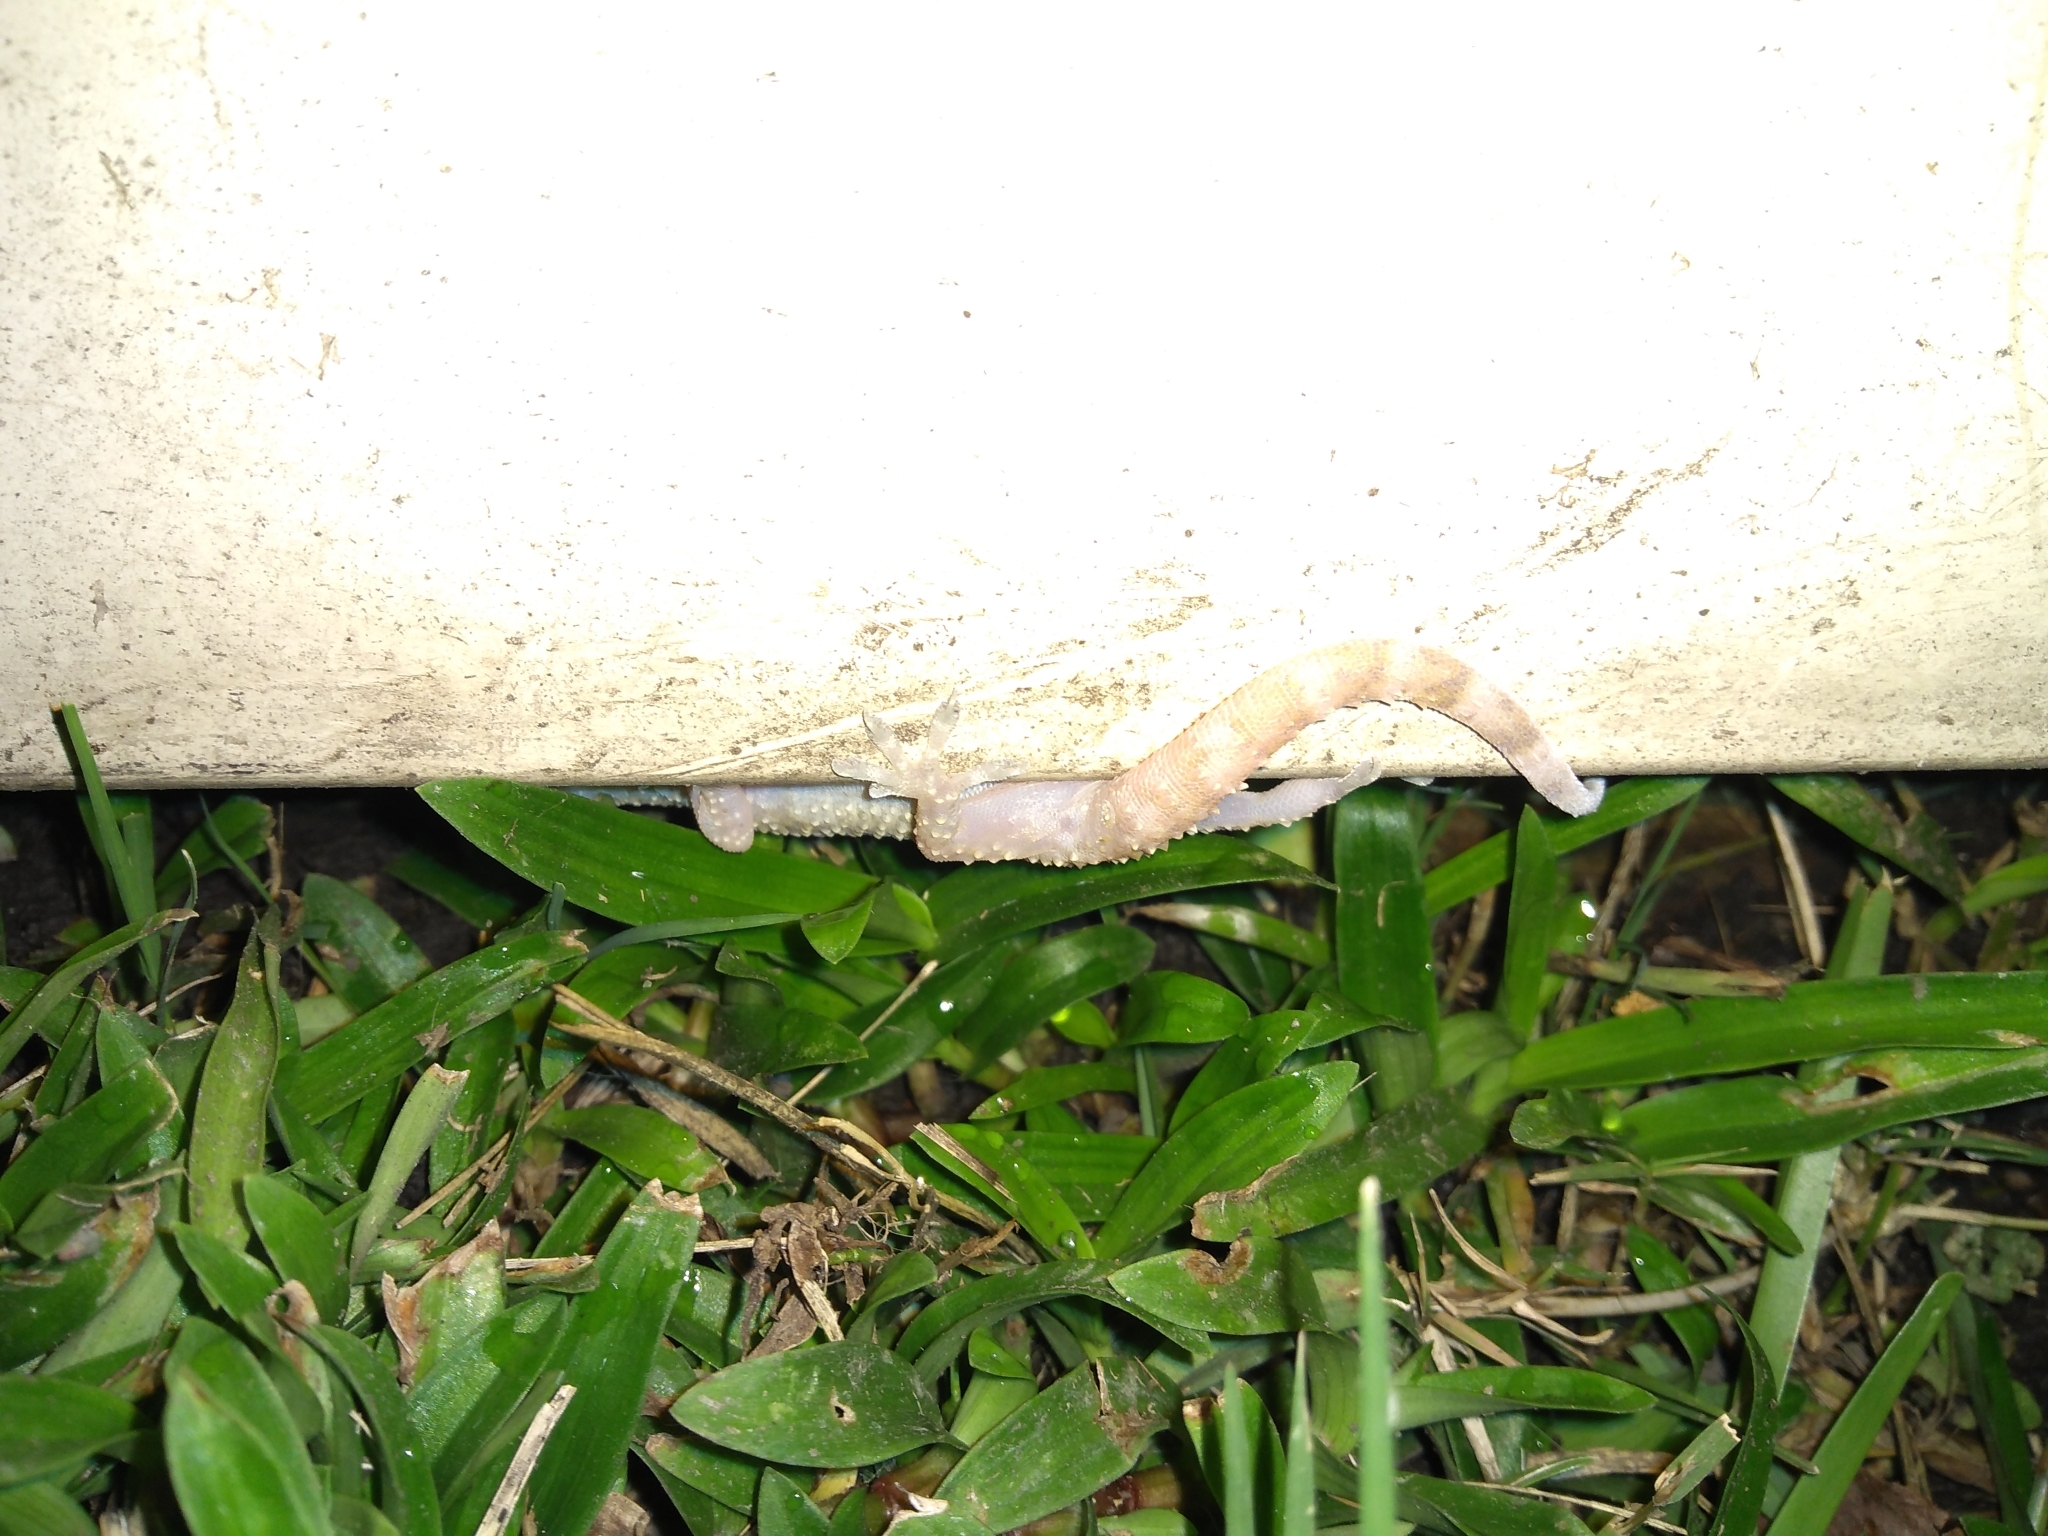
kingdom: Animalia
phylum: Chordata
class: Squamata
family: Gekkonidae
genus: Hemidactylus
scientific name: Hemidactylus turcicus
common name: Turkish gecko
